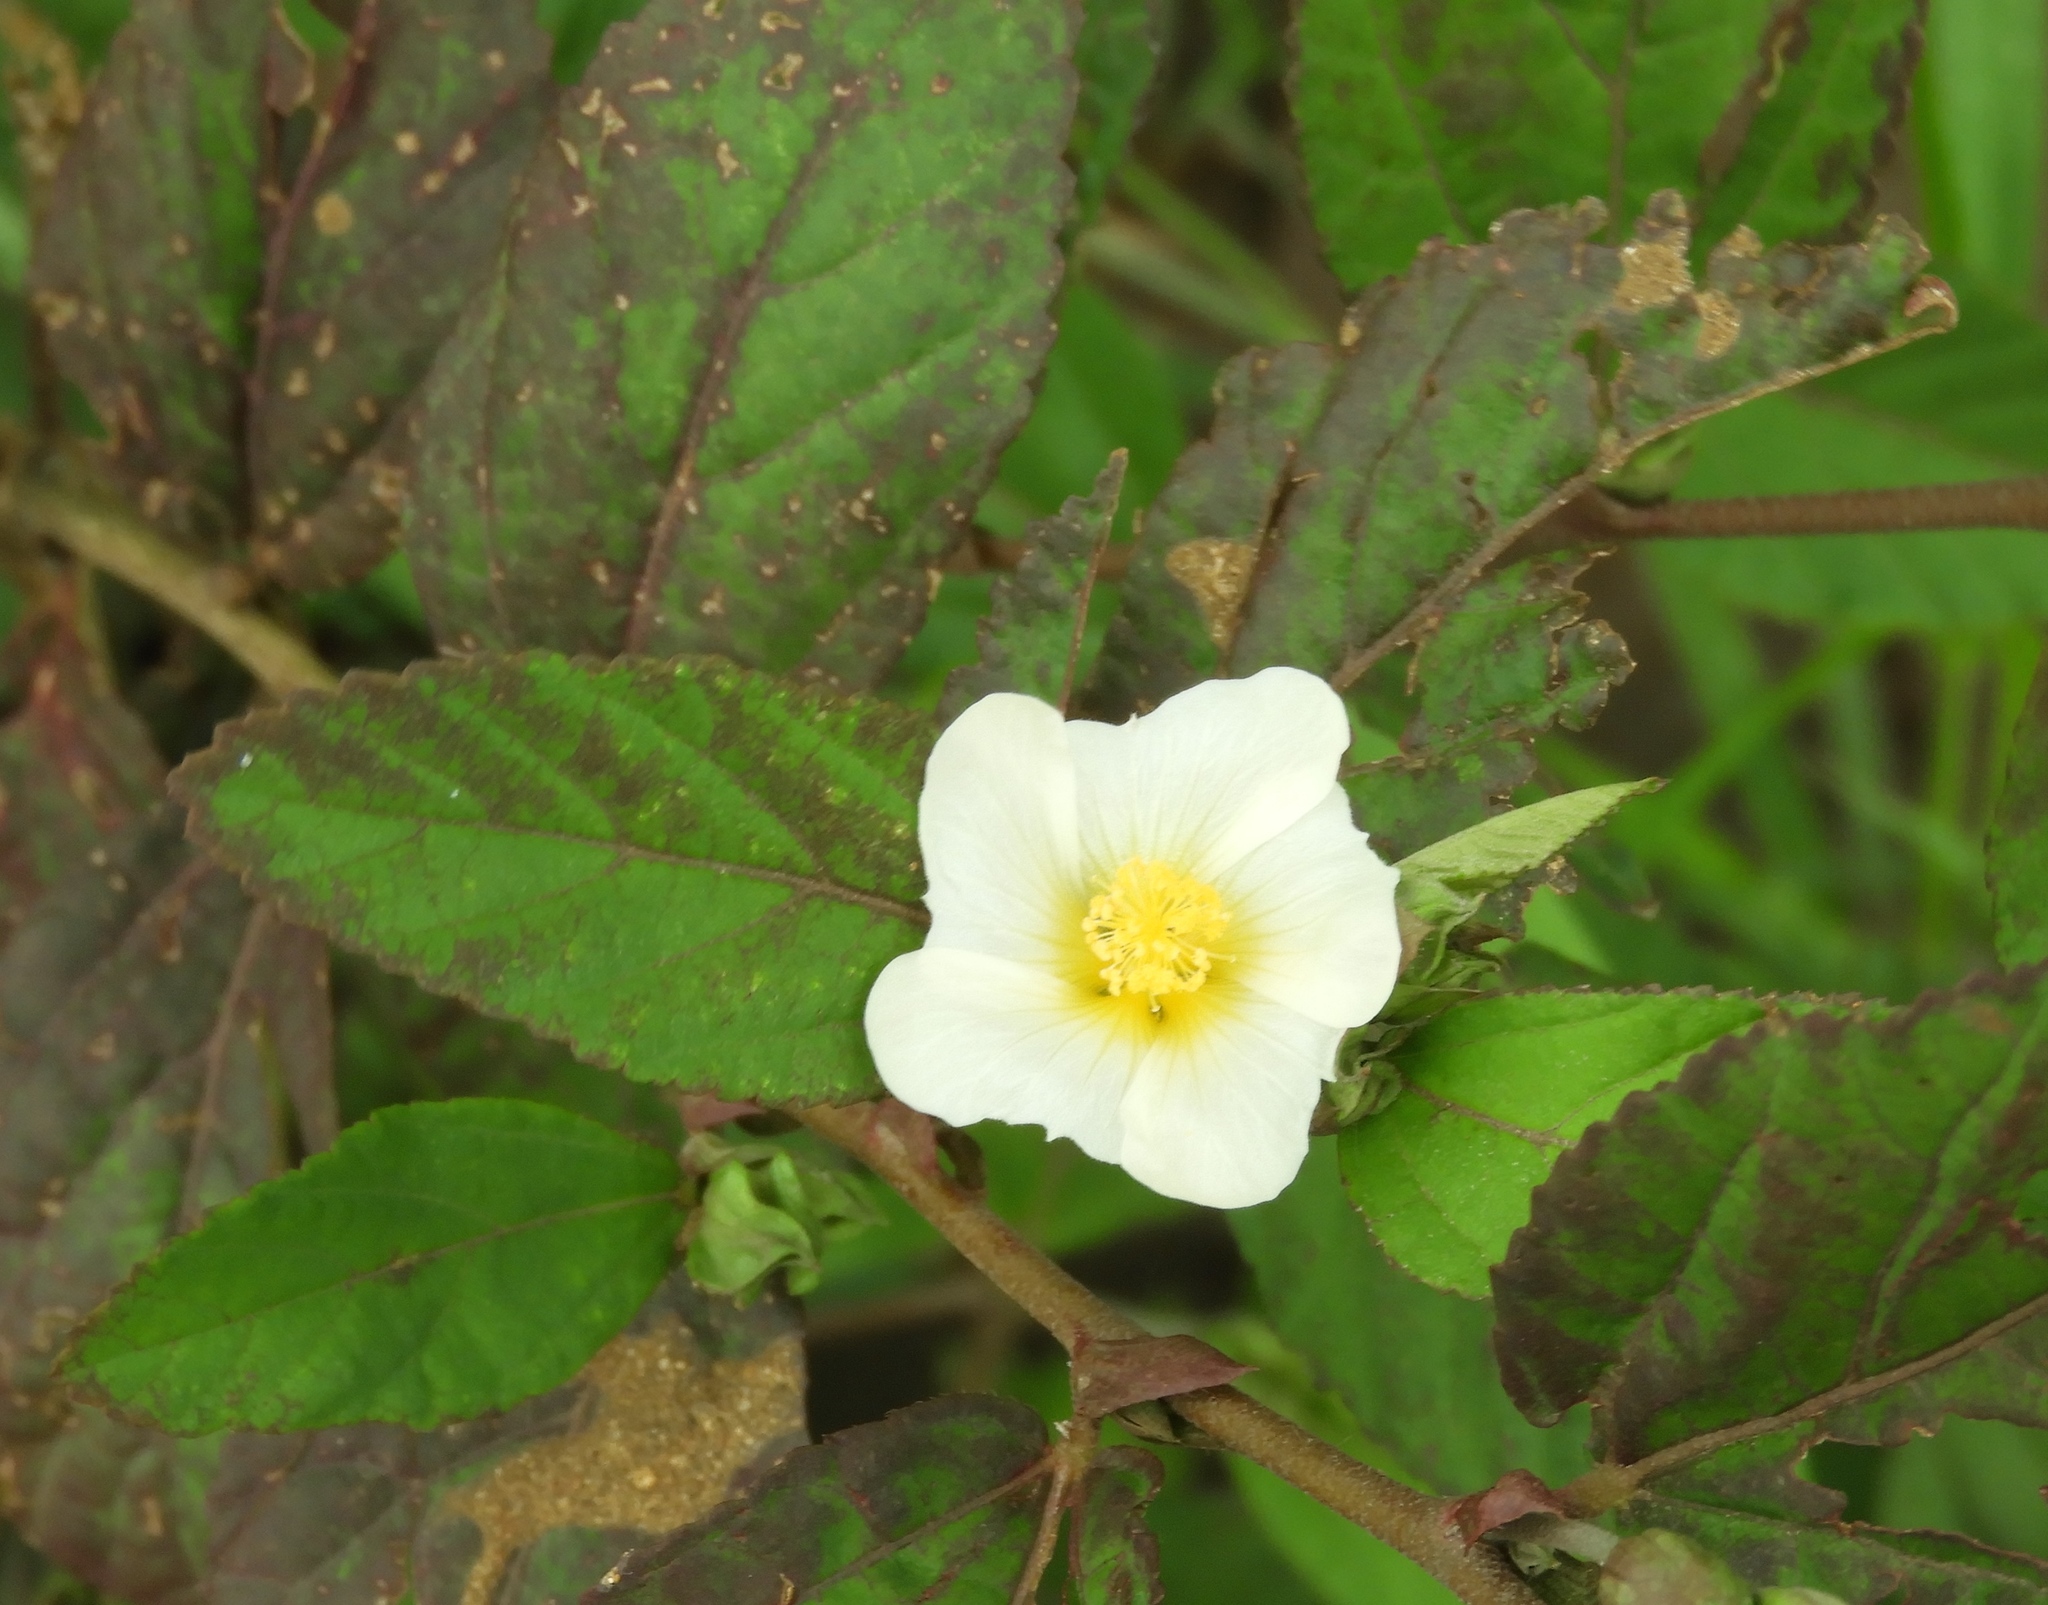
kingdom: Plantae
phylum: Tracheophyta
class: Magnoliopsida
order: Malvales
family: Malvaceae
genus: Sida
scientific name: Sida acuta
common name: Common wireweed
